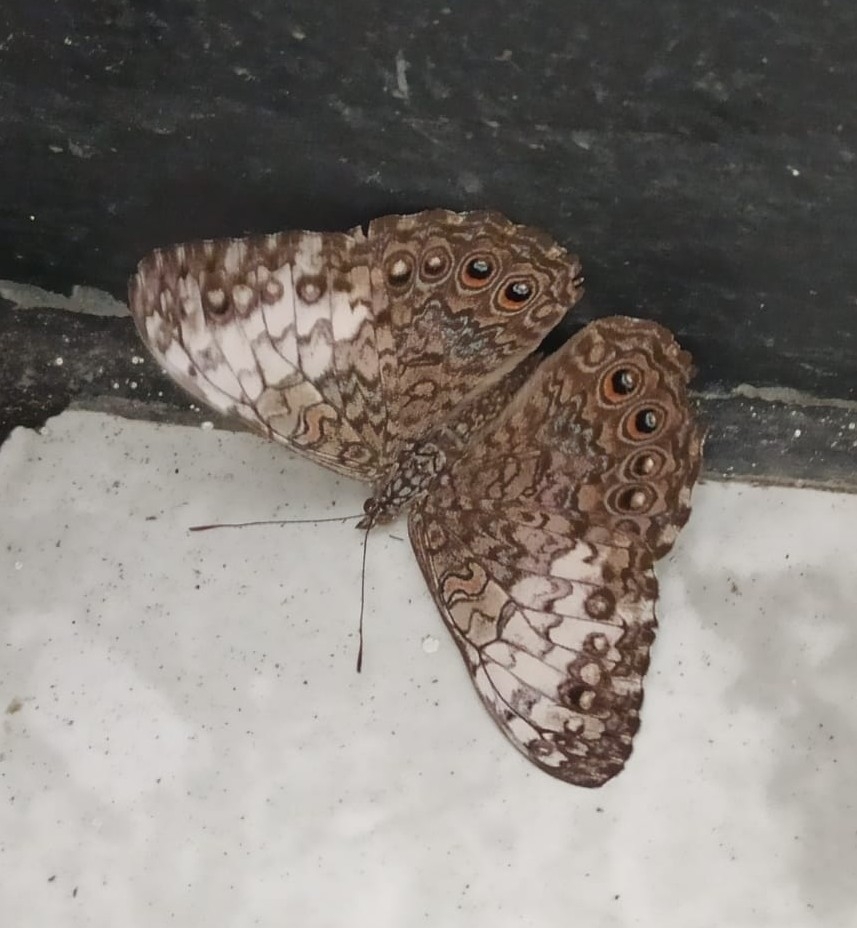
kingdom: Animalia
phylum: Arthropoda
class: Insecta
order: Lepidoptera
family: Nymphalidae
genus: Hamadryas
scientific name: Hamadryas februa
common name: Gray cracker
